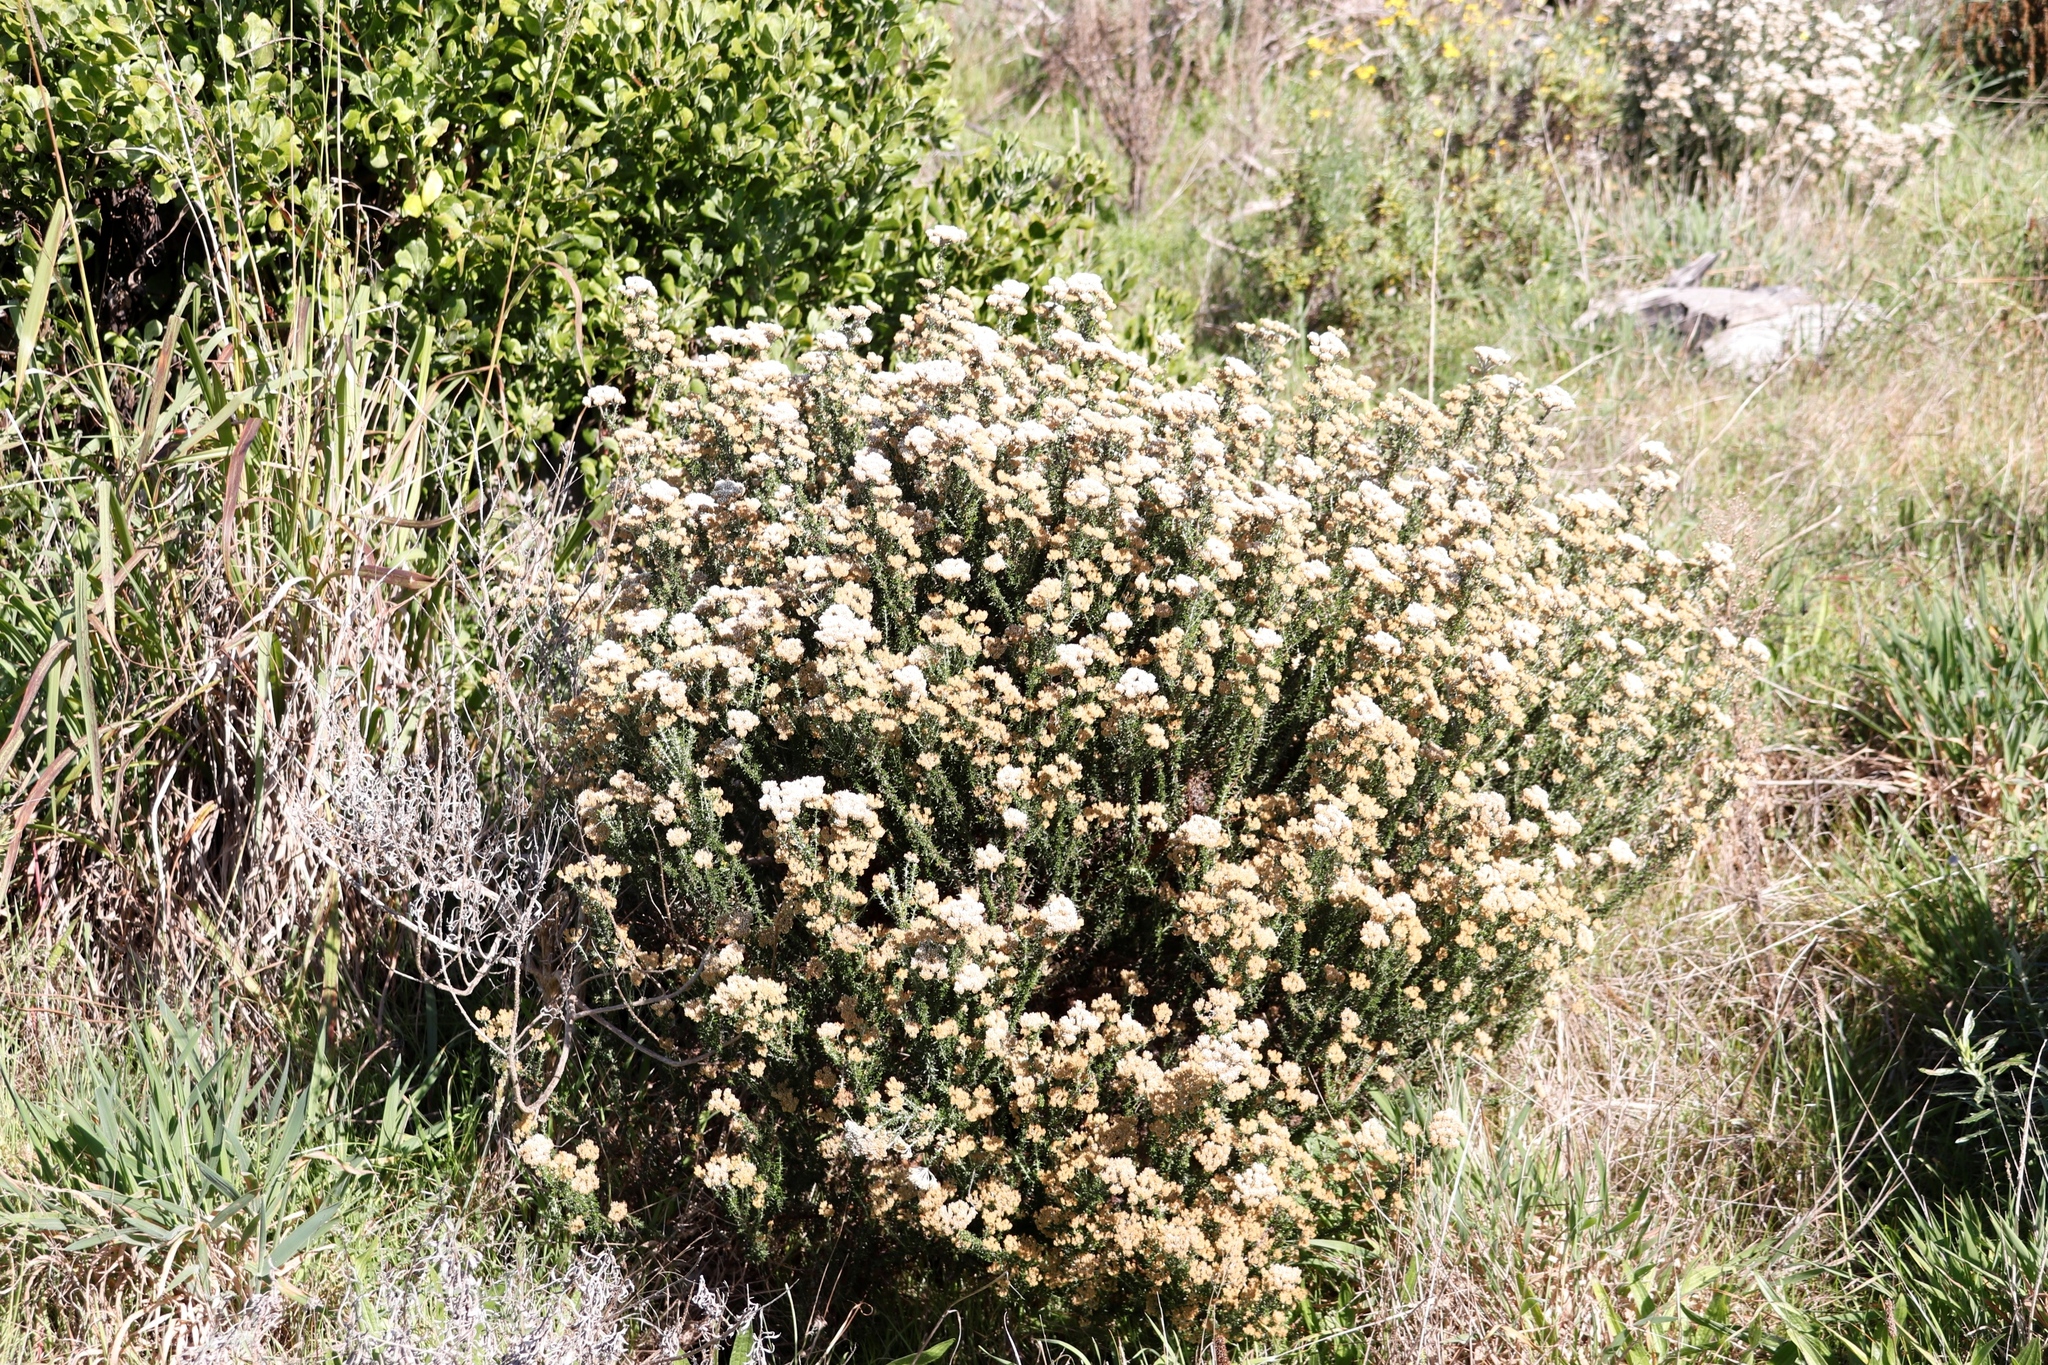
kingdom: Plantae
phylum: Tracheophyta
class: Magnoliopsida
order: Asterales
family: Asteraceae
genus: Metalasia
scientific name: Metalasia densa
